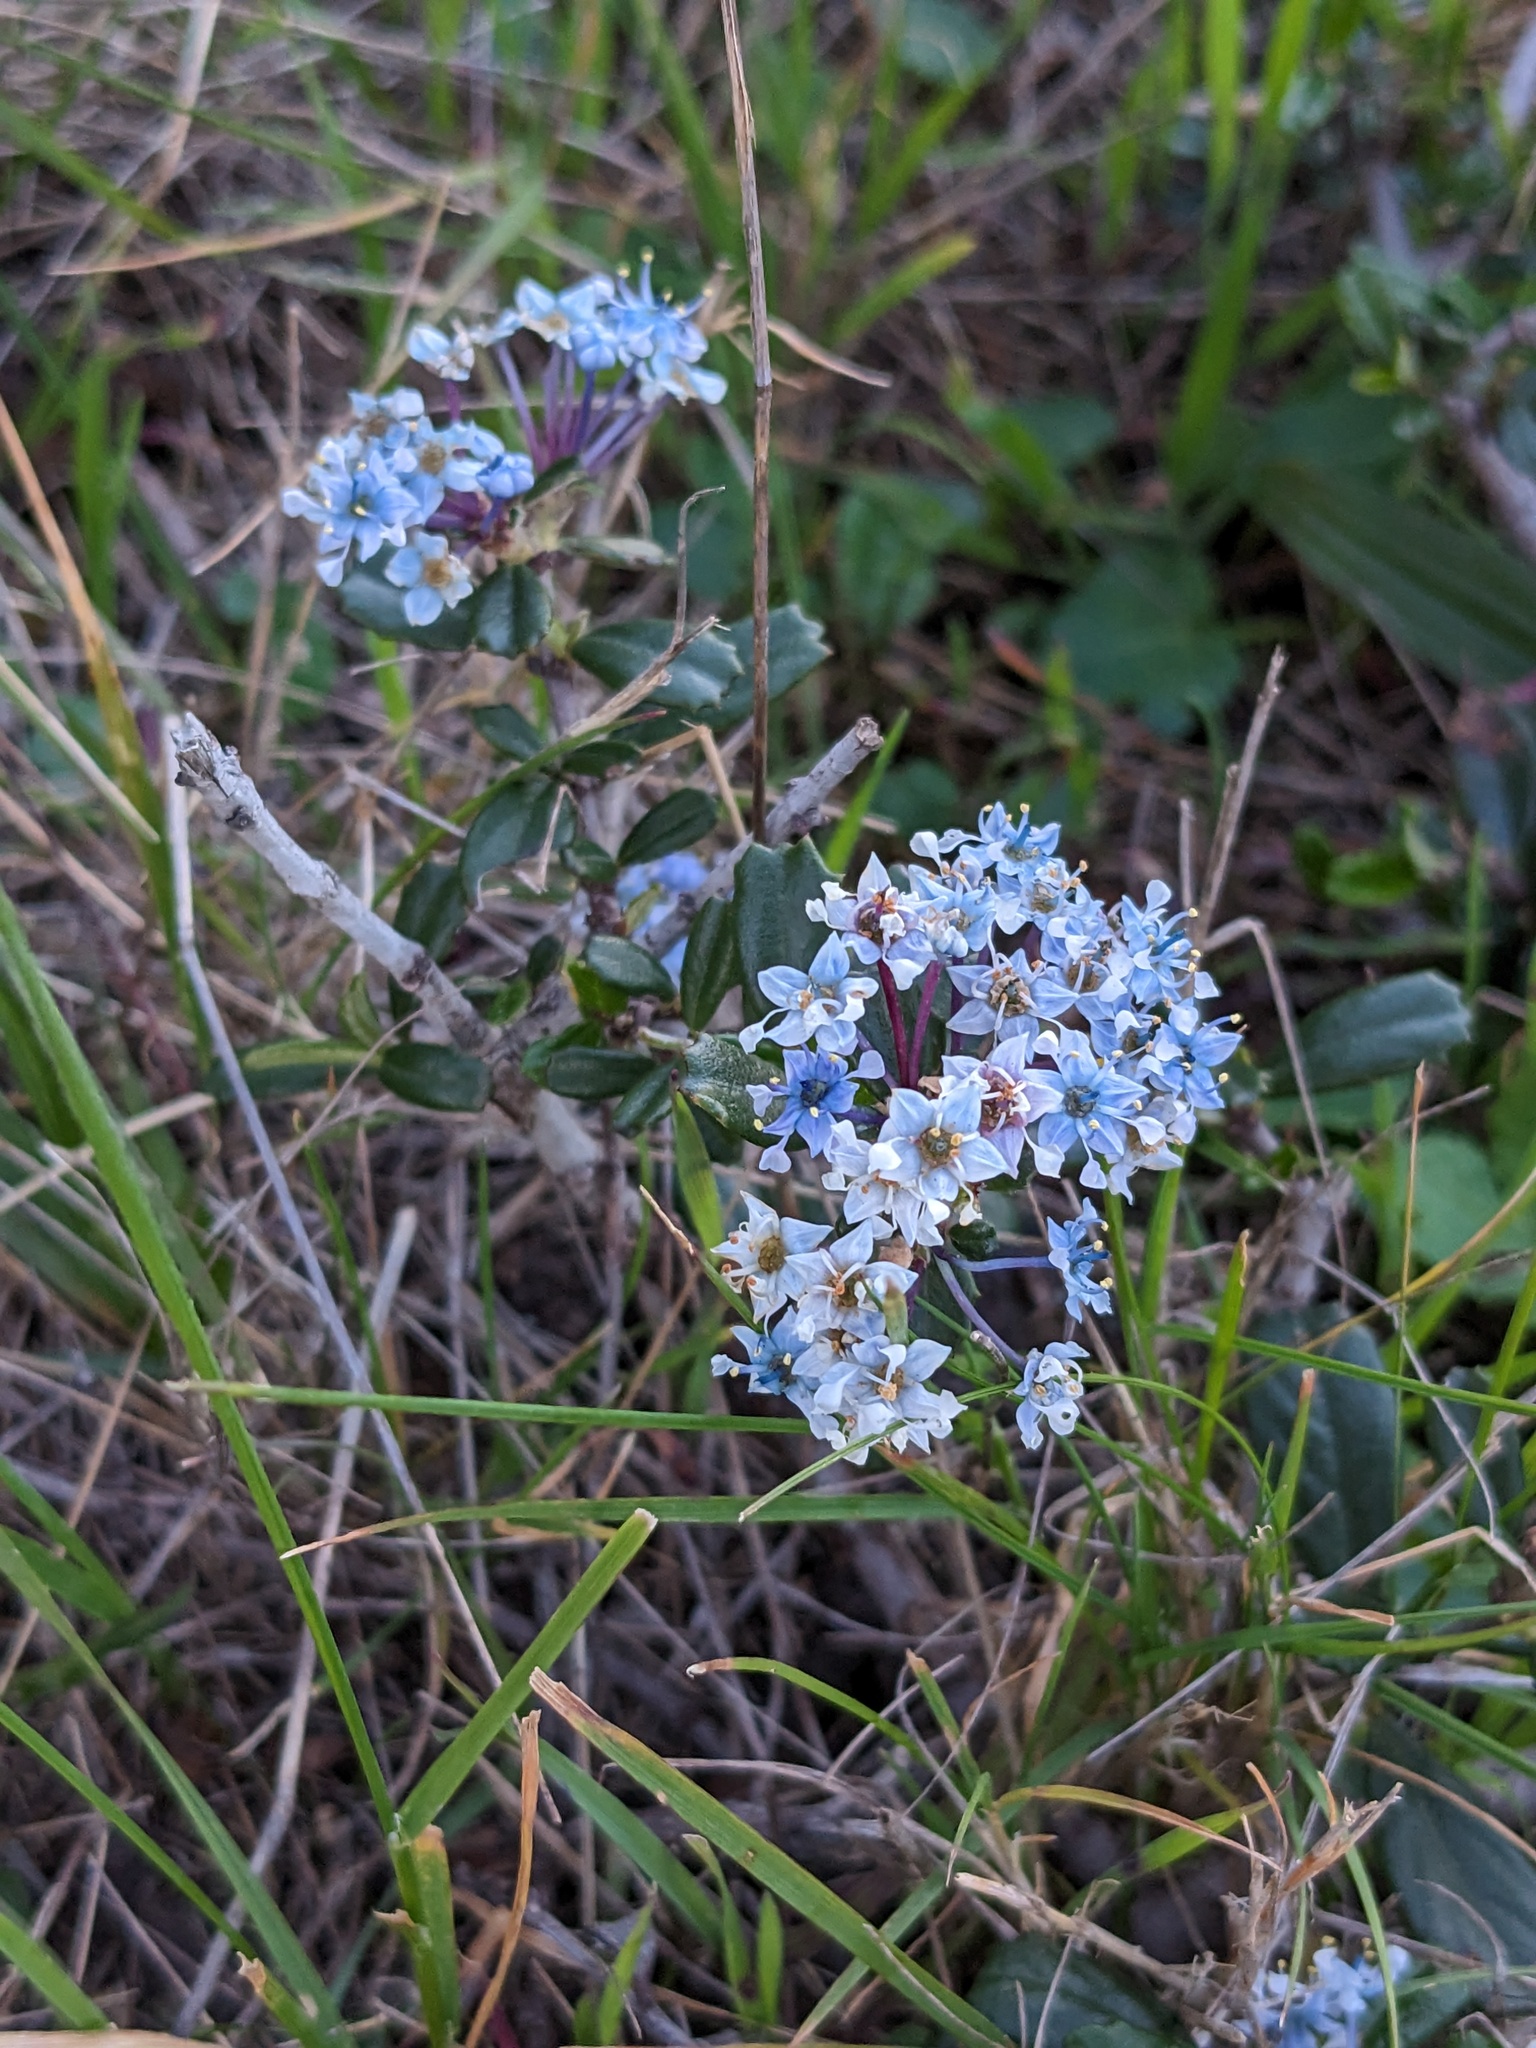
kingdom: Plantae
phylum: Tracheophyta
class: Magnoliopsida
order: Rosales
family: Rhamnaceae
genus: Ceanothus
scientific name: Ceanothus maritimus
